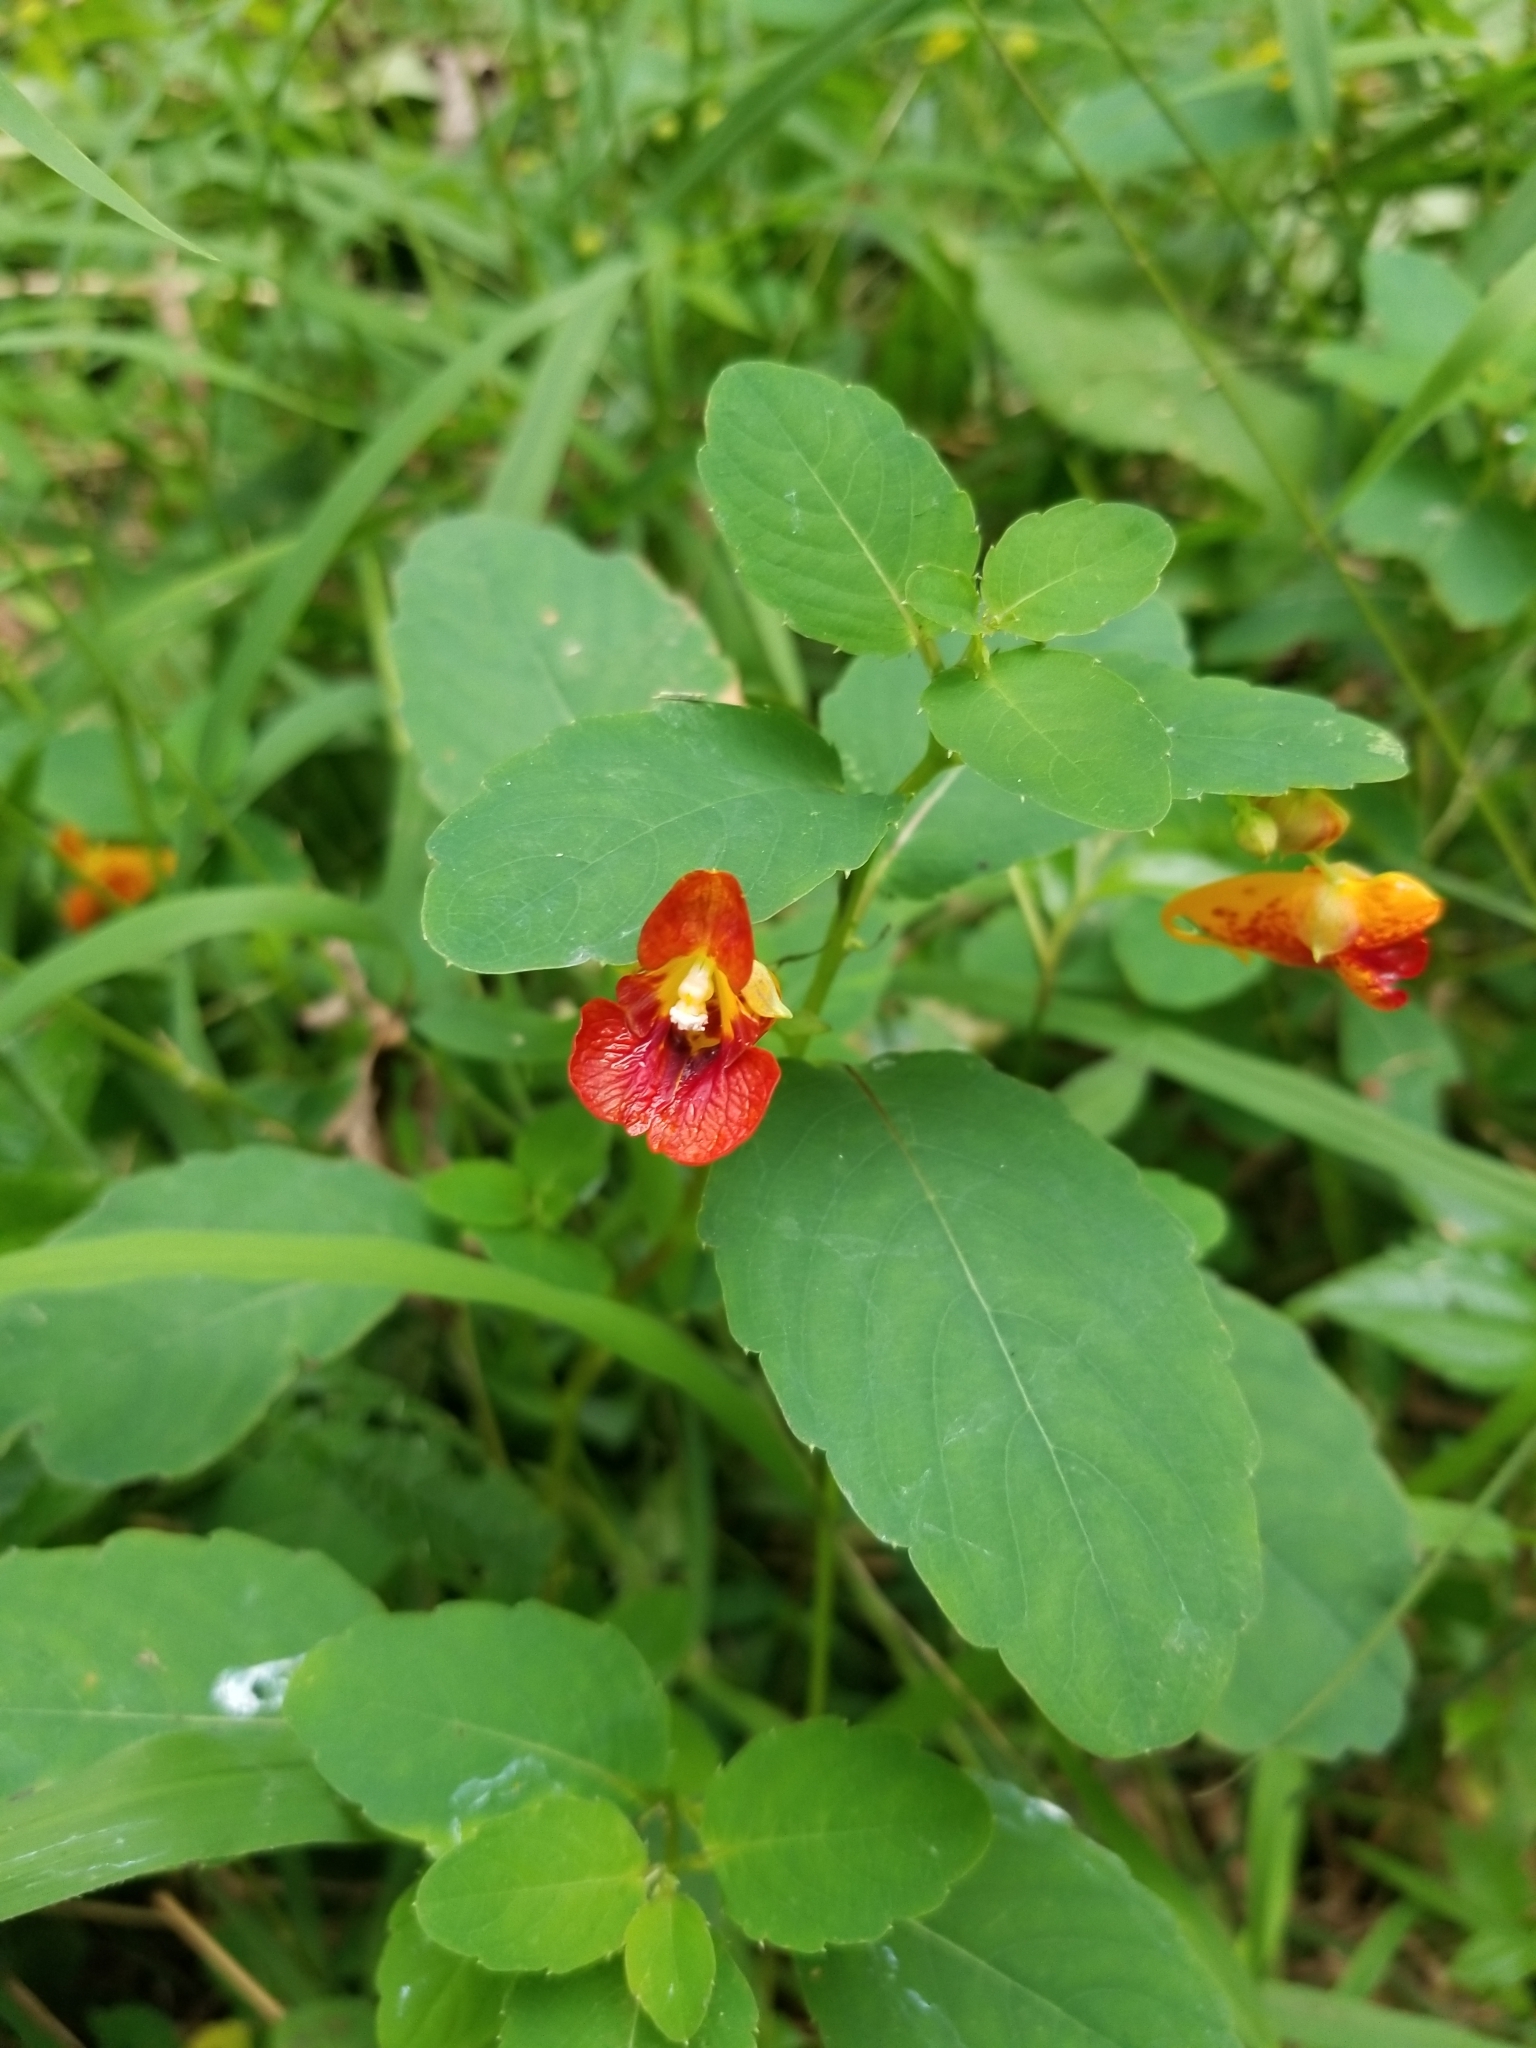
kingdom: Plantae
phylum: Tracheophyta
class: Magnoliopsida
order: Ericales
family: Balsaminaceae
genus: Impatiens
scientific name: Impatiens capensis
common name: Orange balsam
